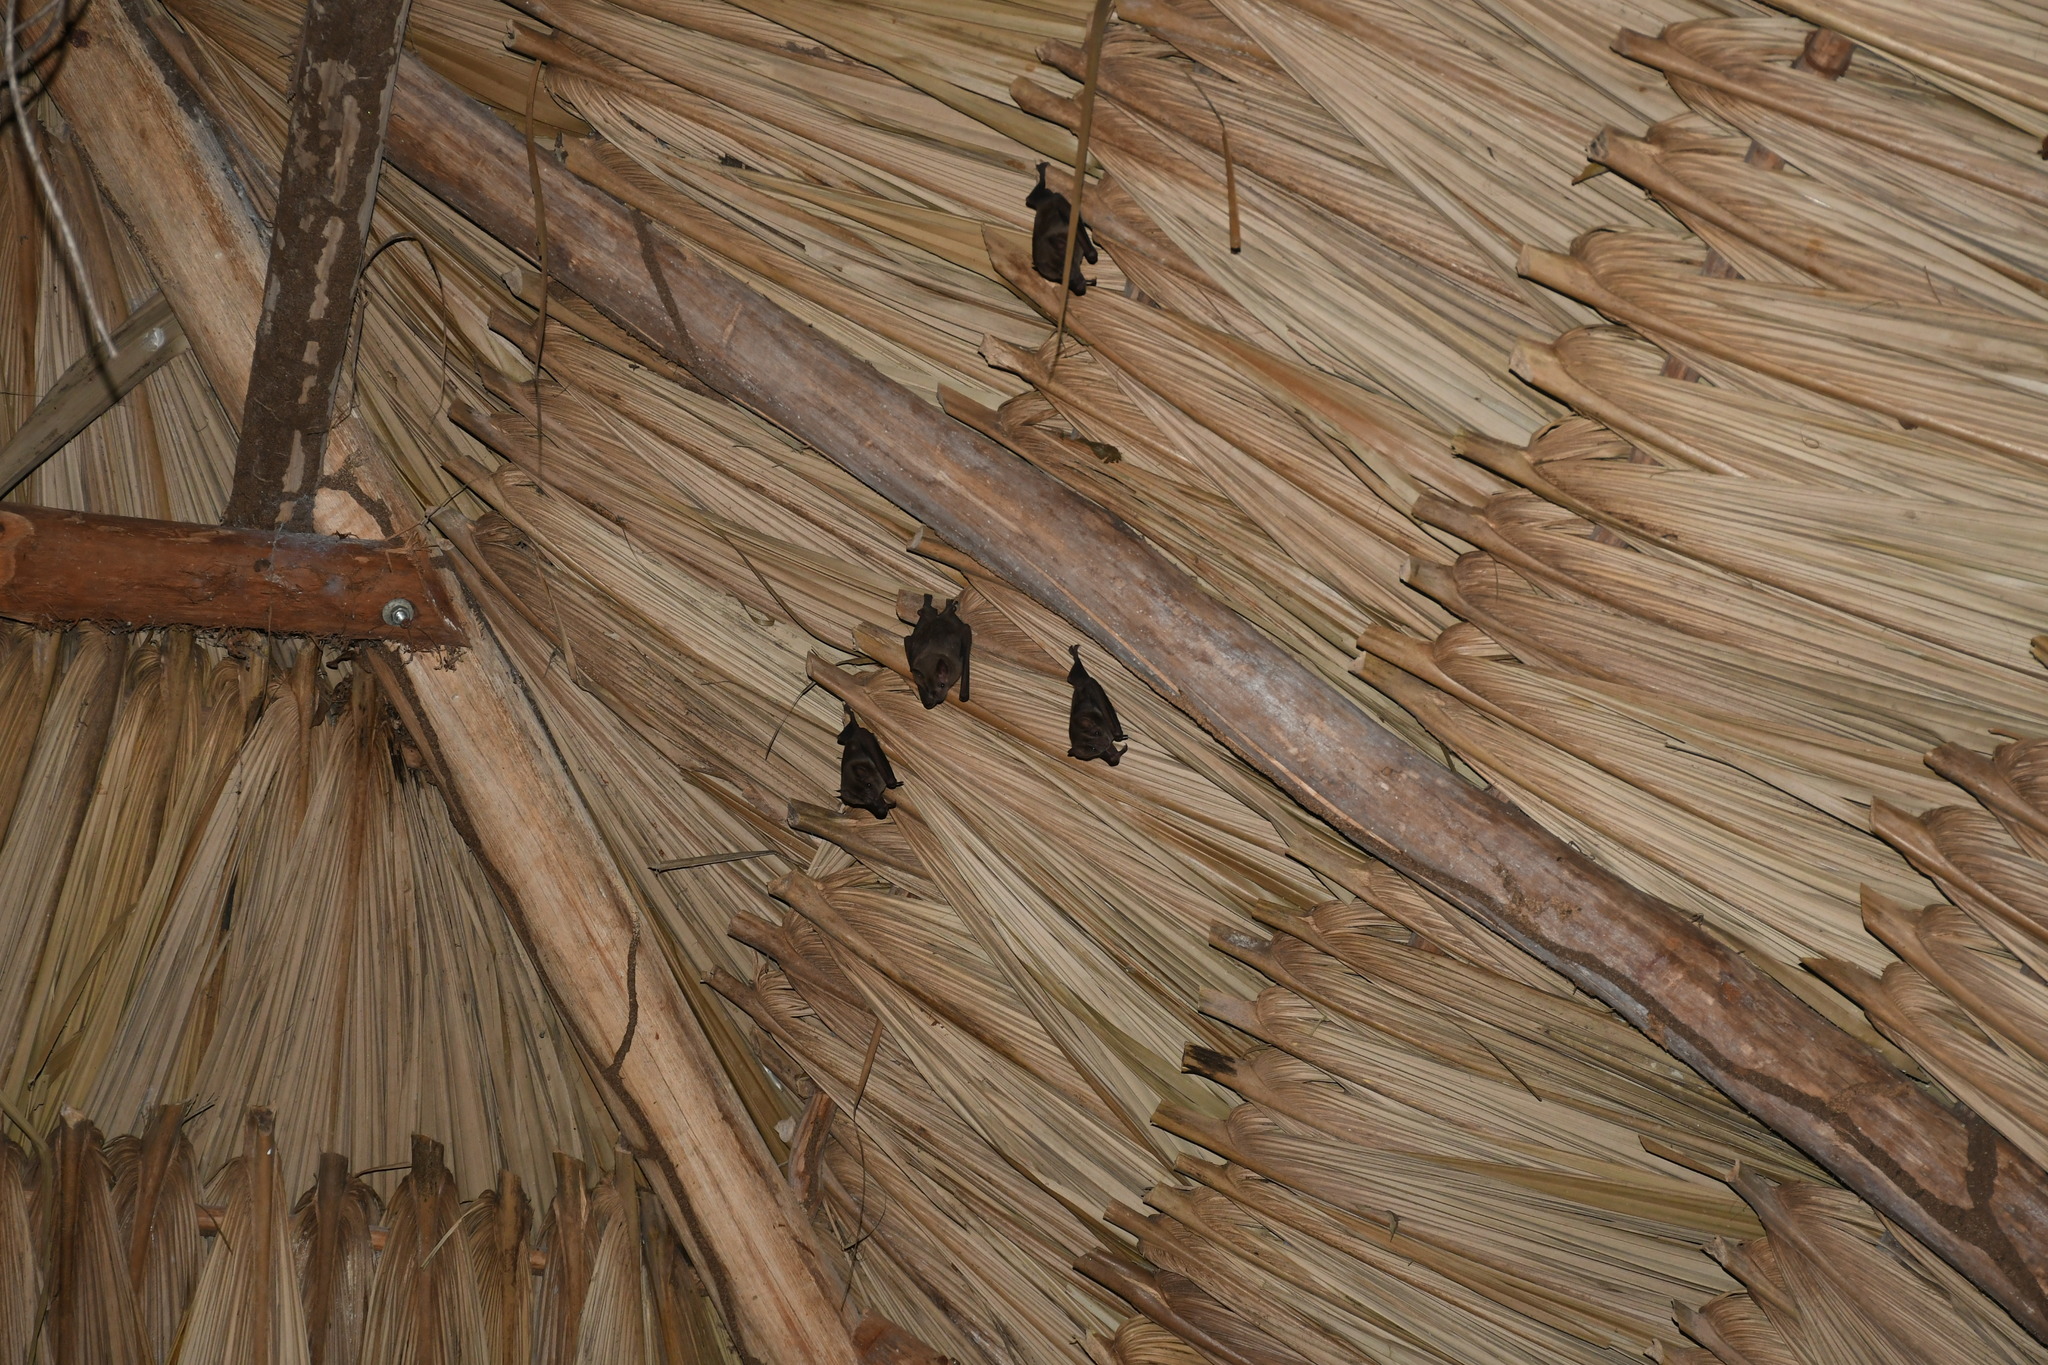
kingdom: Animalia
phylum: Chordata
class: Mammalia
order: Chiroptera
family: Phyllostomidae
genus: Artibeus
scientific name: Artibeus jamaicensis
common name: Jamaican fruit-eating bat
